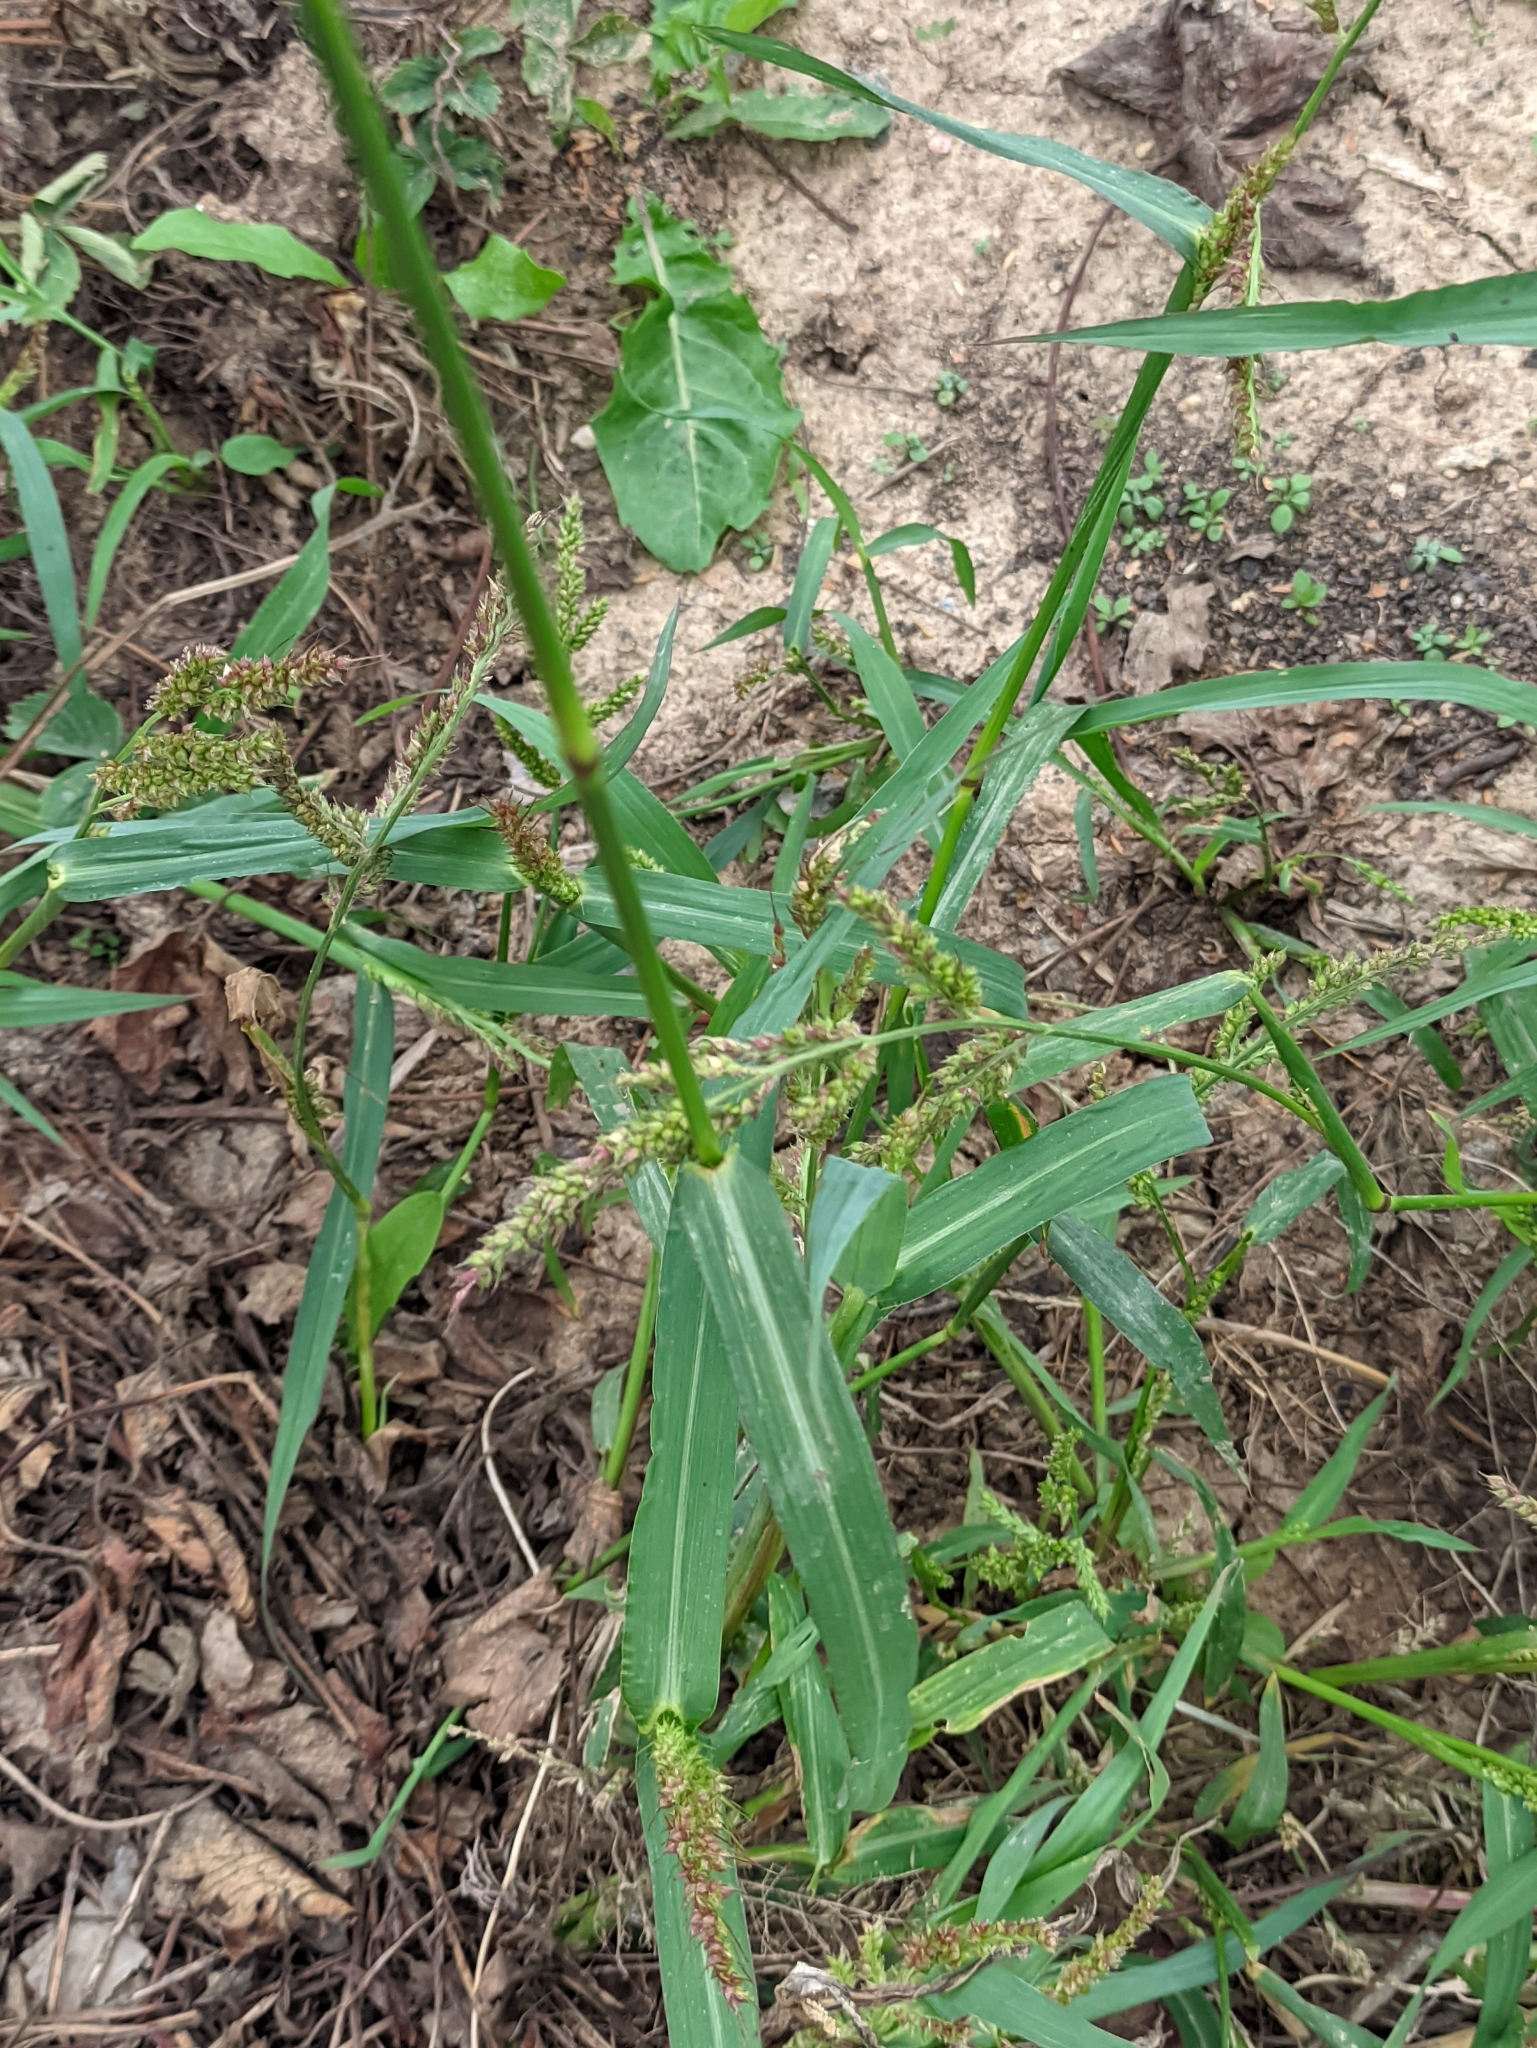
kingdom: Plantae
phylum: Tracheophyta
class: Liliopsida
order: Poales
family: Poaceae
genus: Echinochloa
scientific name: Echinochloa crus-galli
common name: Cockspur
